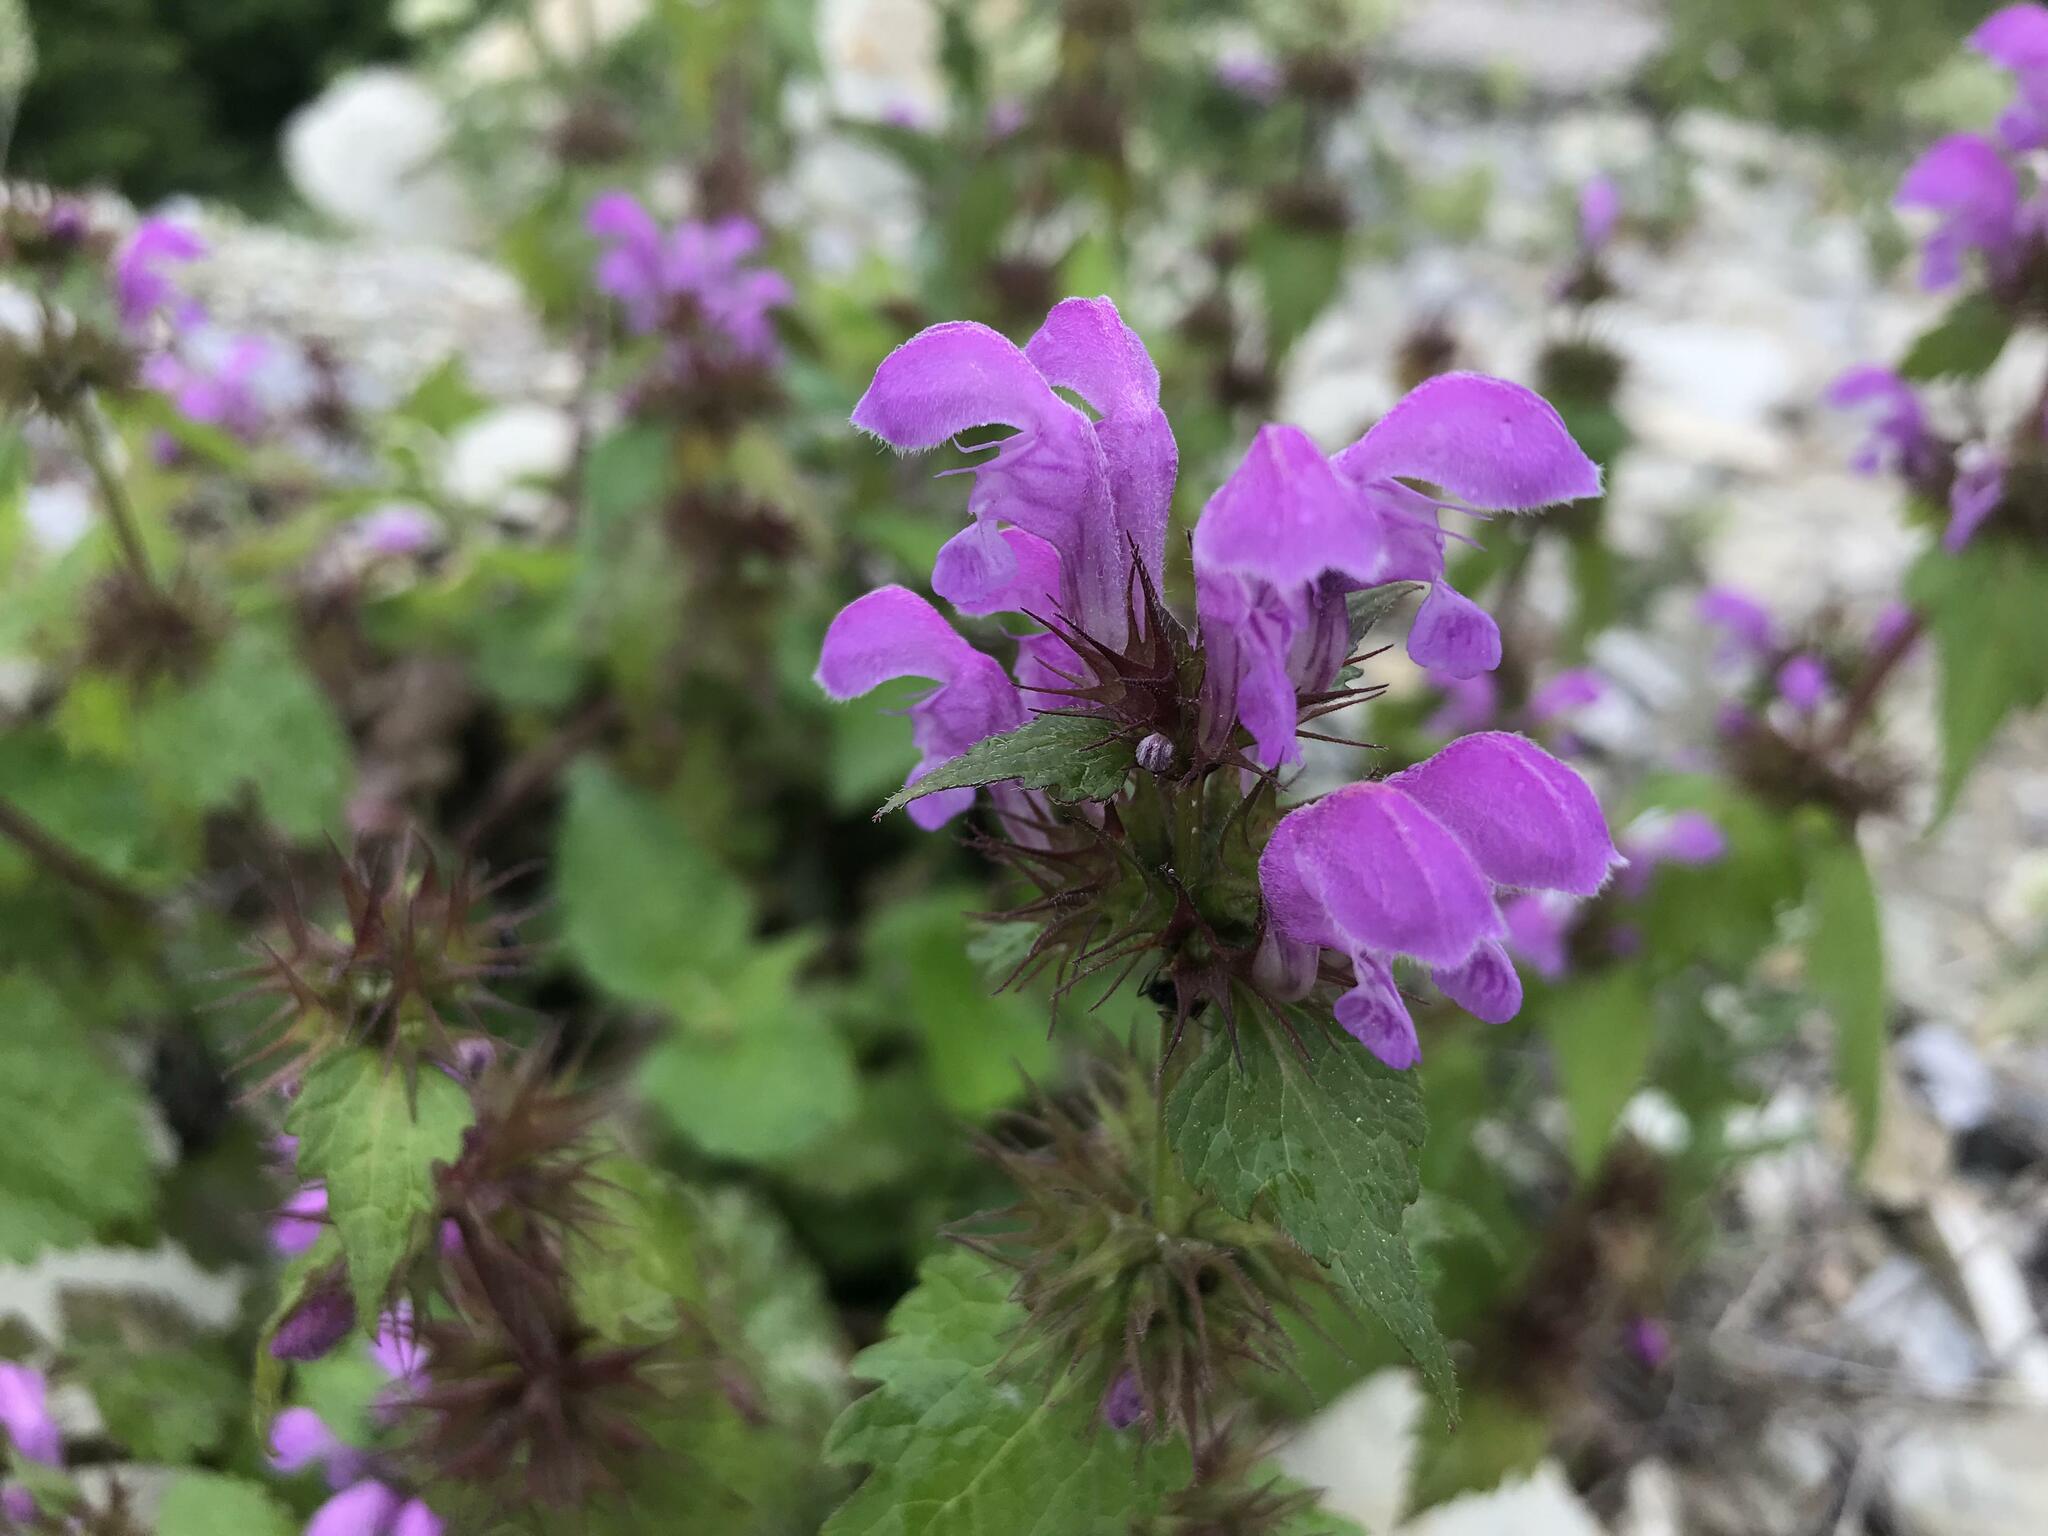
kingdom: Plantae
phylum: Tracheophyta
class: Magnoliopsida
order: Lamiales
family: Lamiaceae
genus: Lamium
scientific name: Lamium maculatum
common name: Spotted dead-nettle
